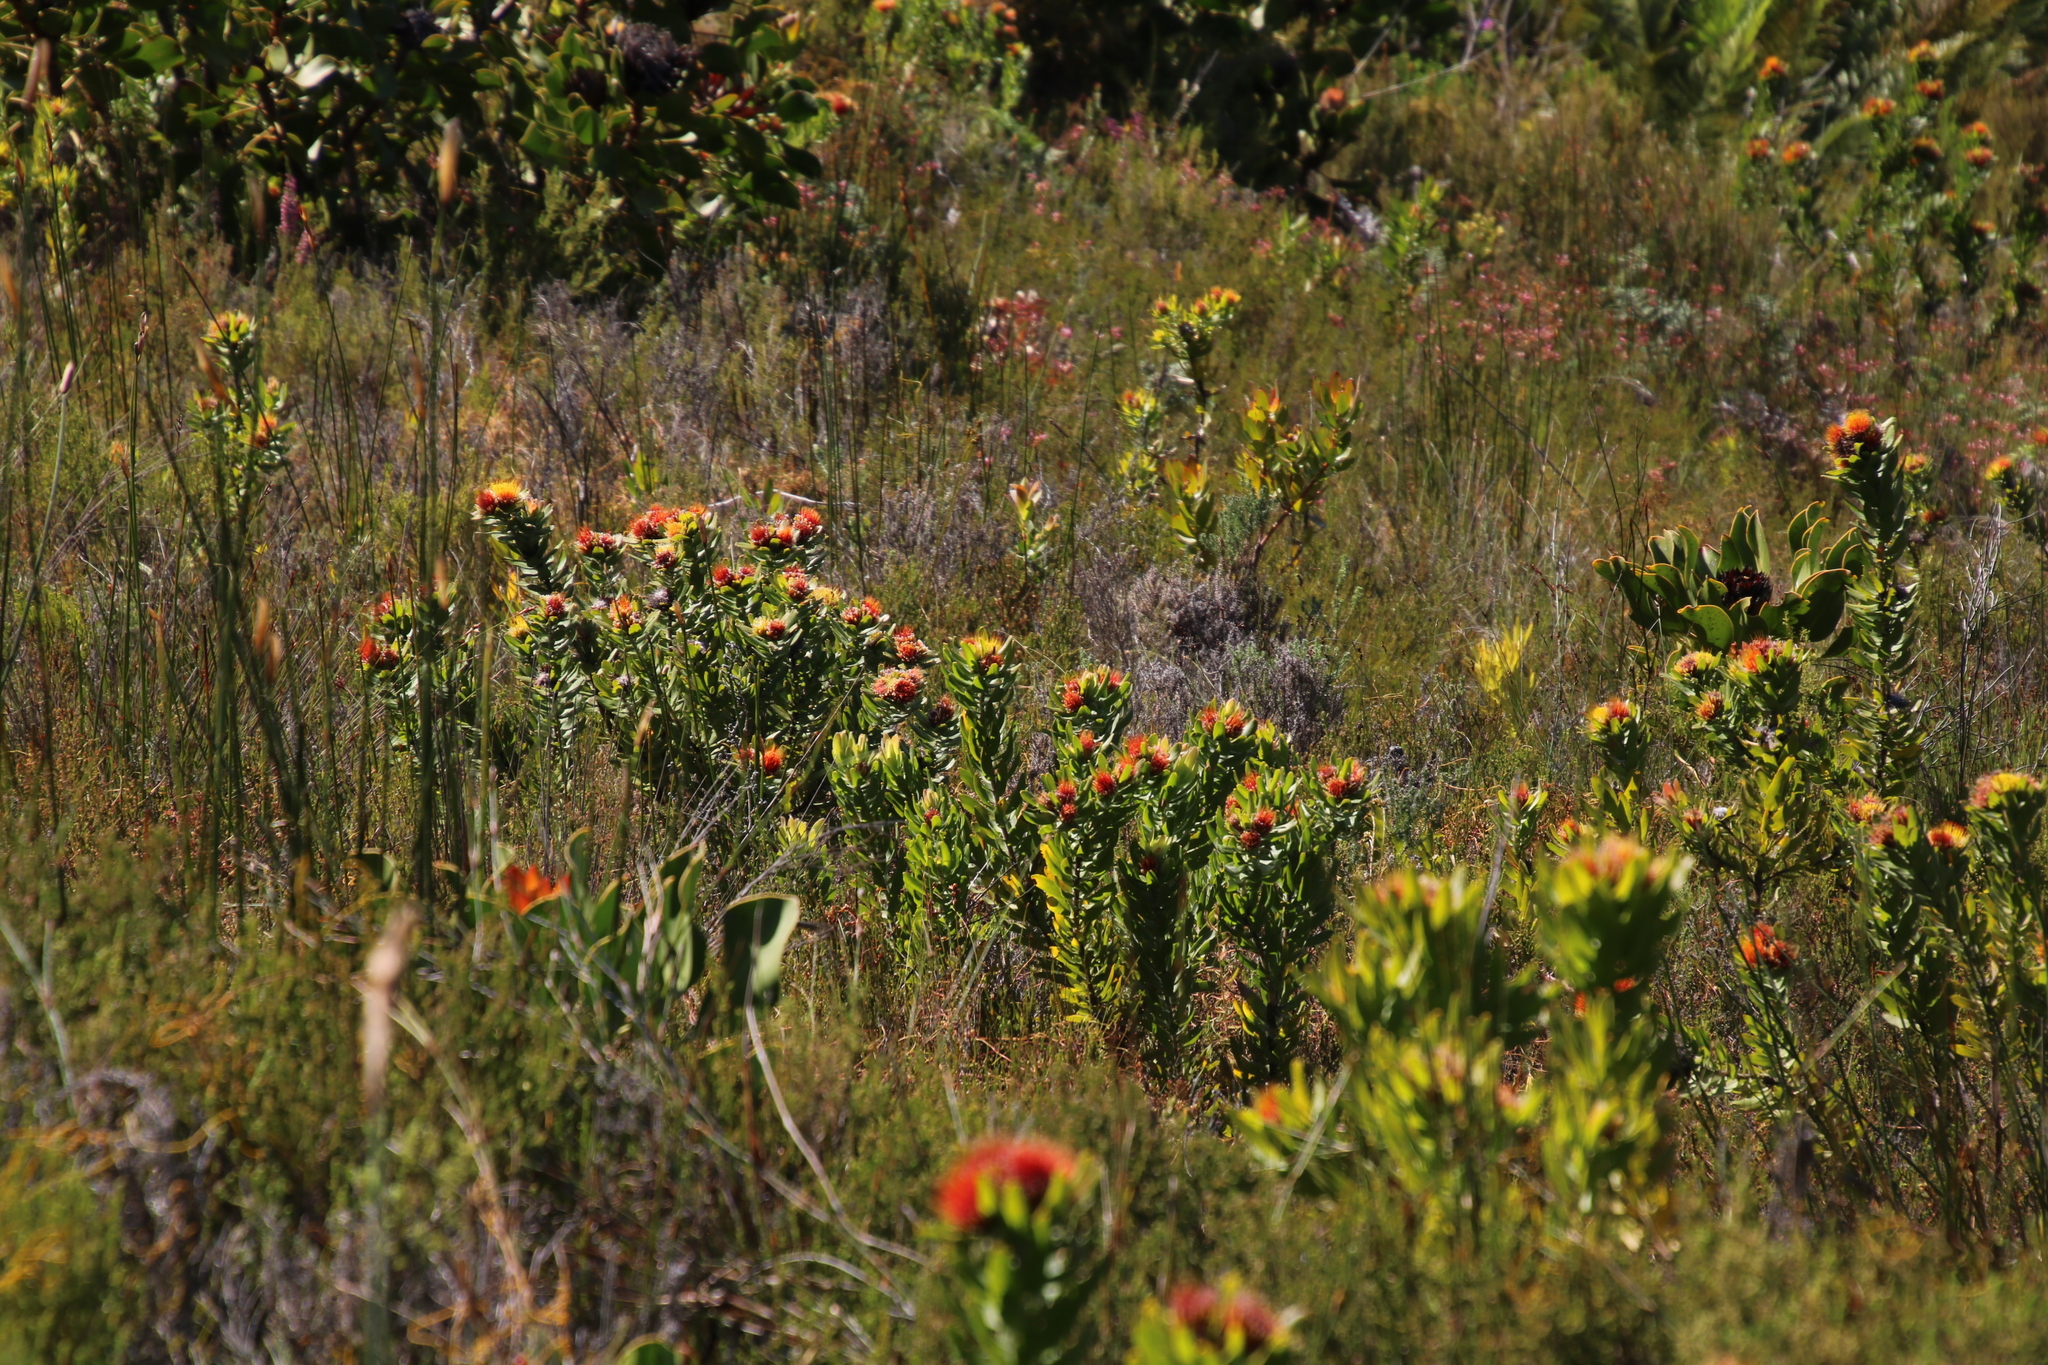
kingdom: Plantae
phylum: Tracheophyta
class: Magnoliopsida
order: Proteales
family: Proteaceae
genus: Leucospermum
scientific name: Leucospermum oleifolium
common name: Matches
